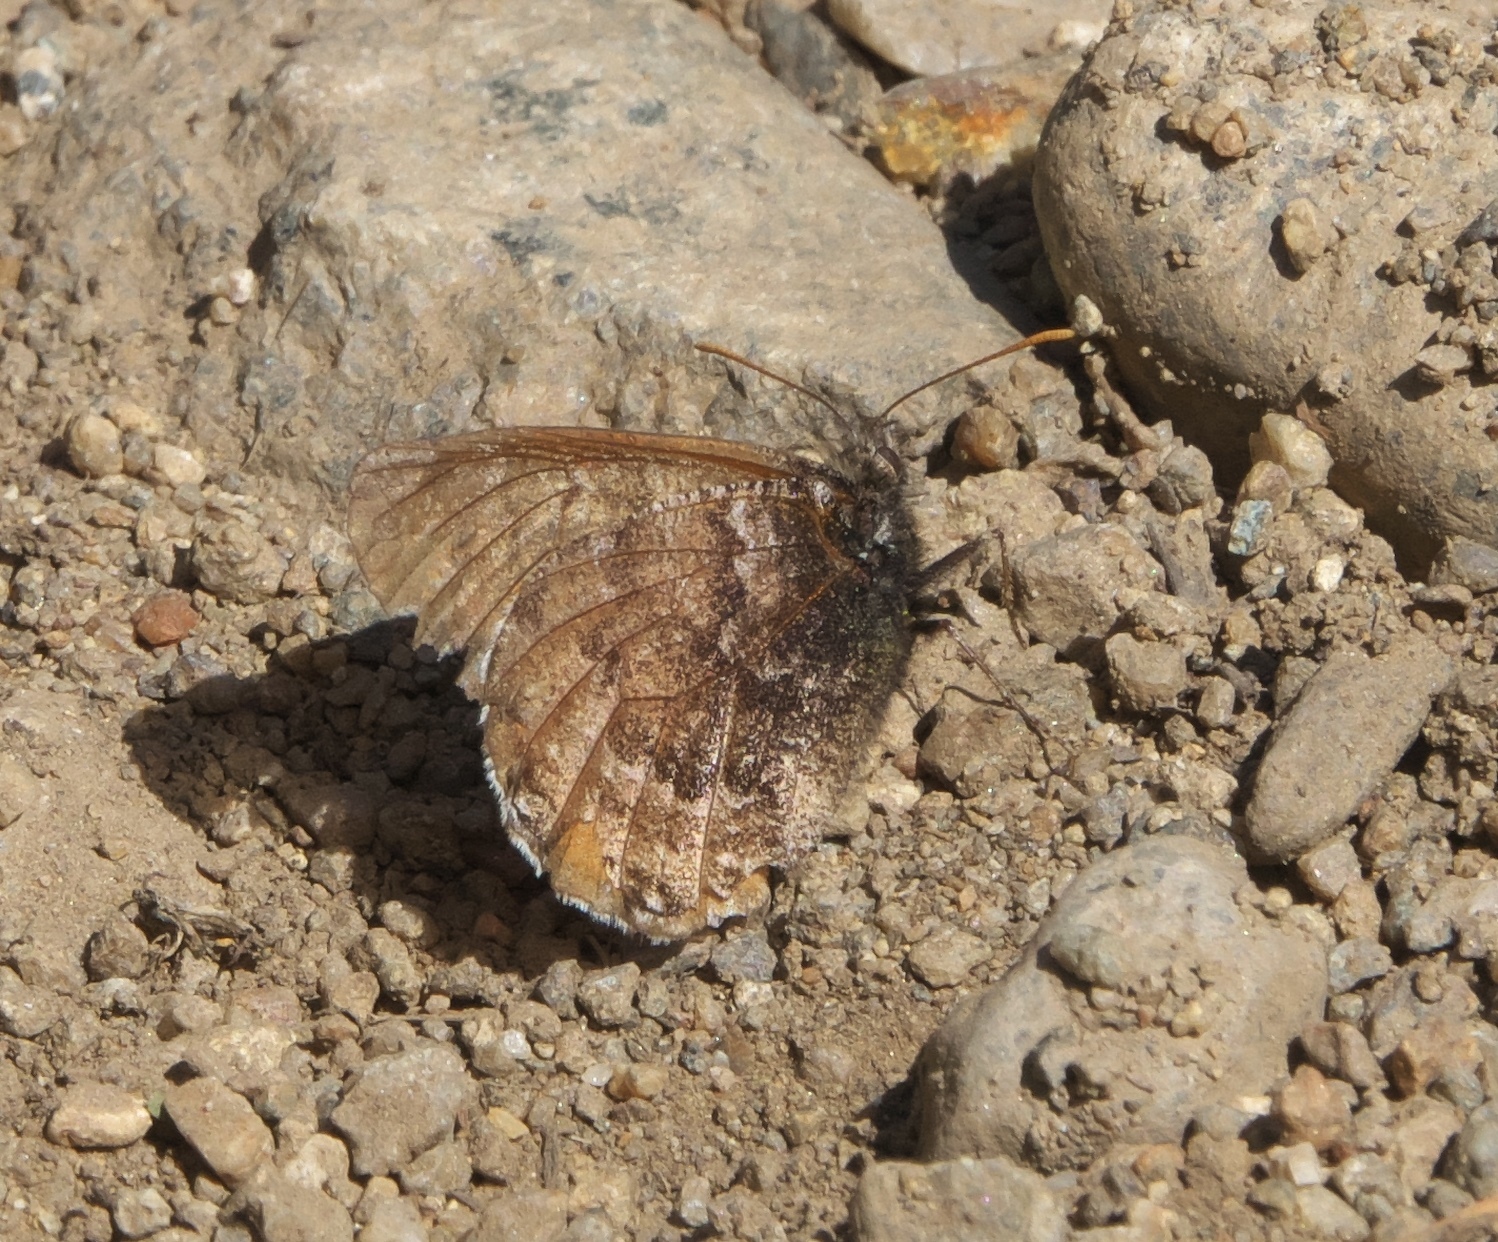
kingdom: Animalia
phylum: Arthropoda
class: Insecta
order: Lepidoptera
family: Nymphalidae
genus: Oeneis
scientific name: Oeneis chryxus
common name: Chryxus arctic
